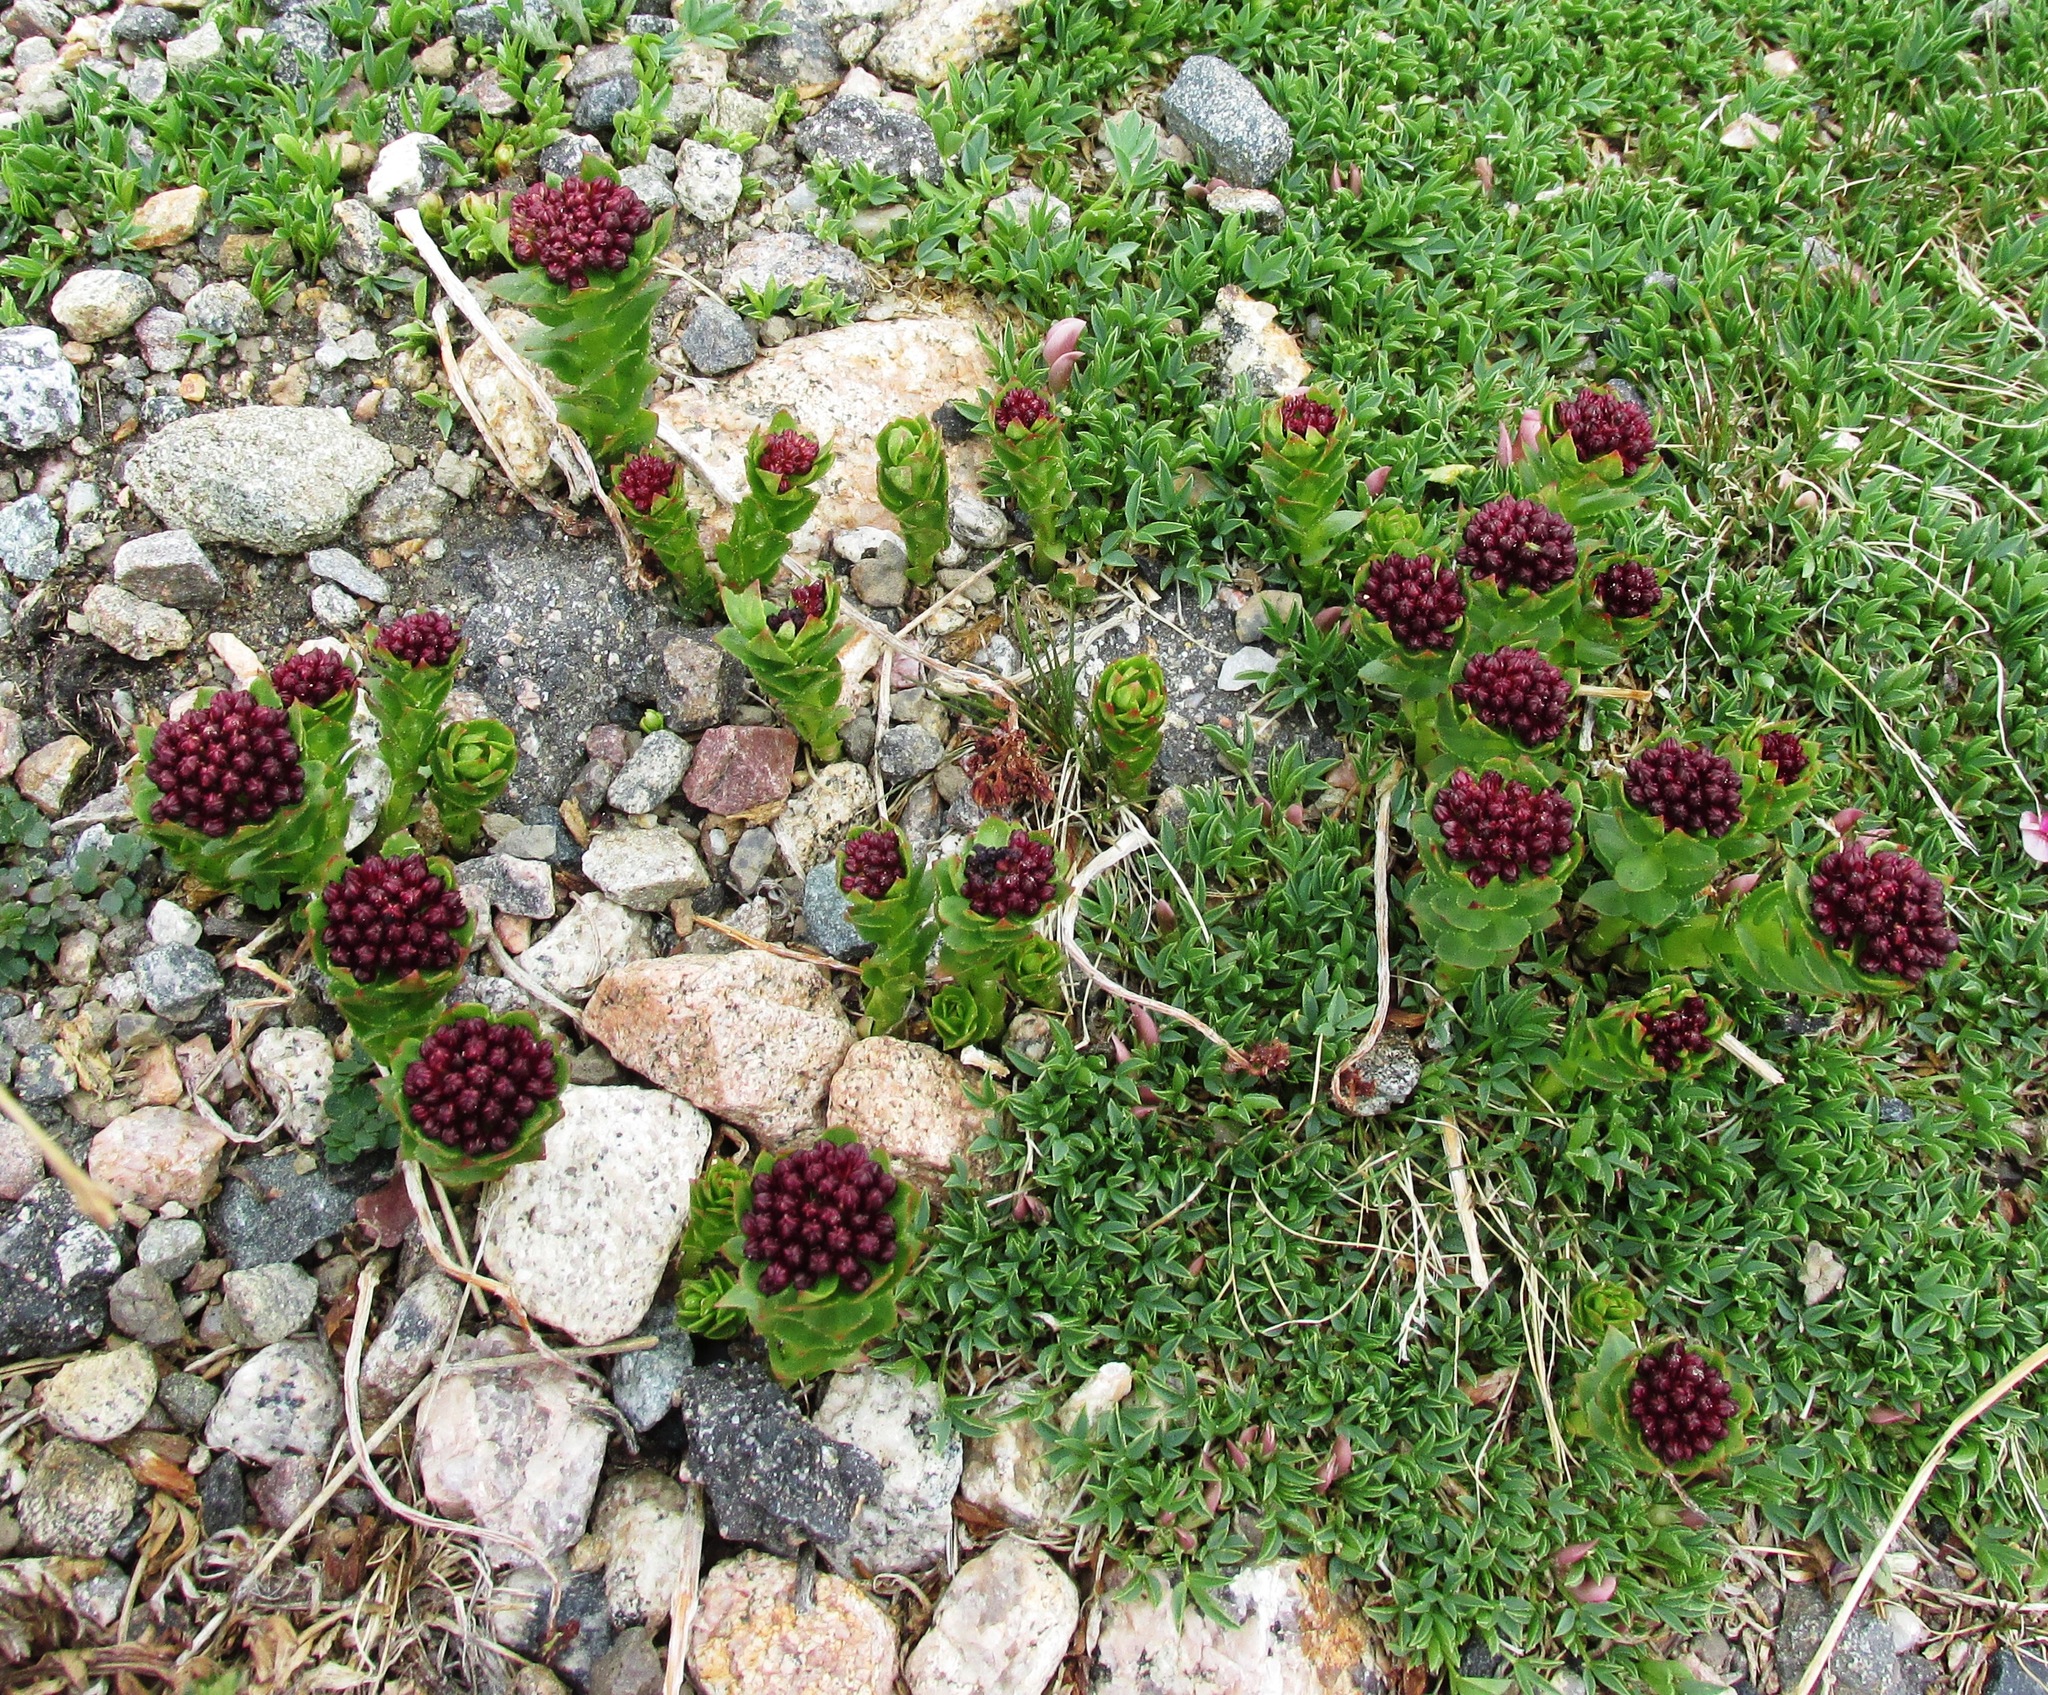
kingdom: Plantae
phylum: Tracheophyta
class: Magnoliopsida
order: Saxifragales
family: Crassulaceae
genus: Rhodiola
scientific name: Rhodiola integrifolia
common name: Western roseroot
